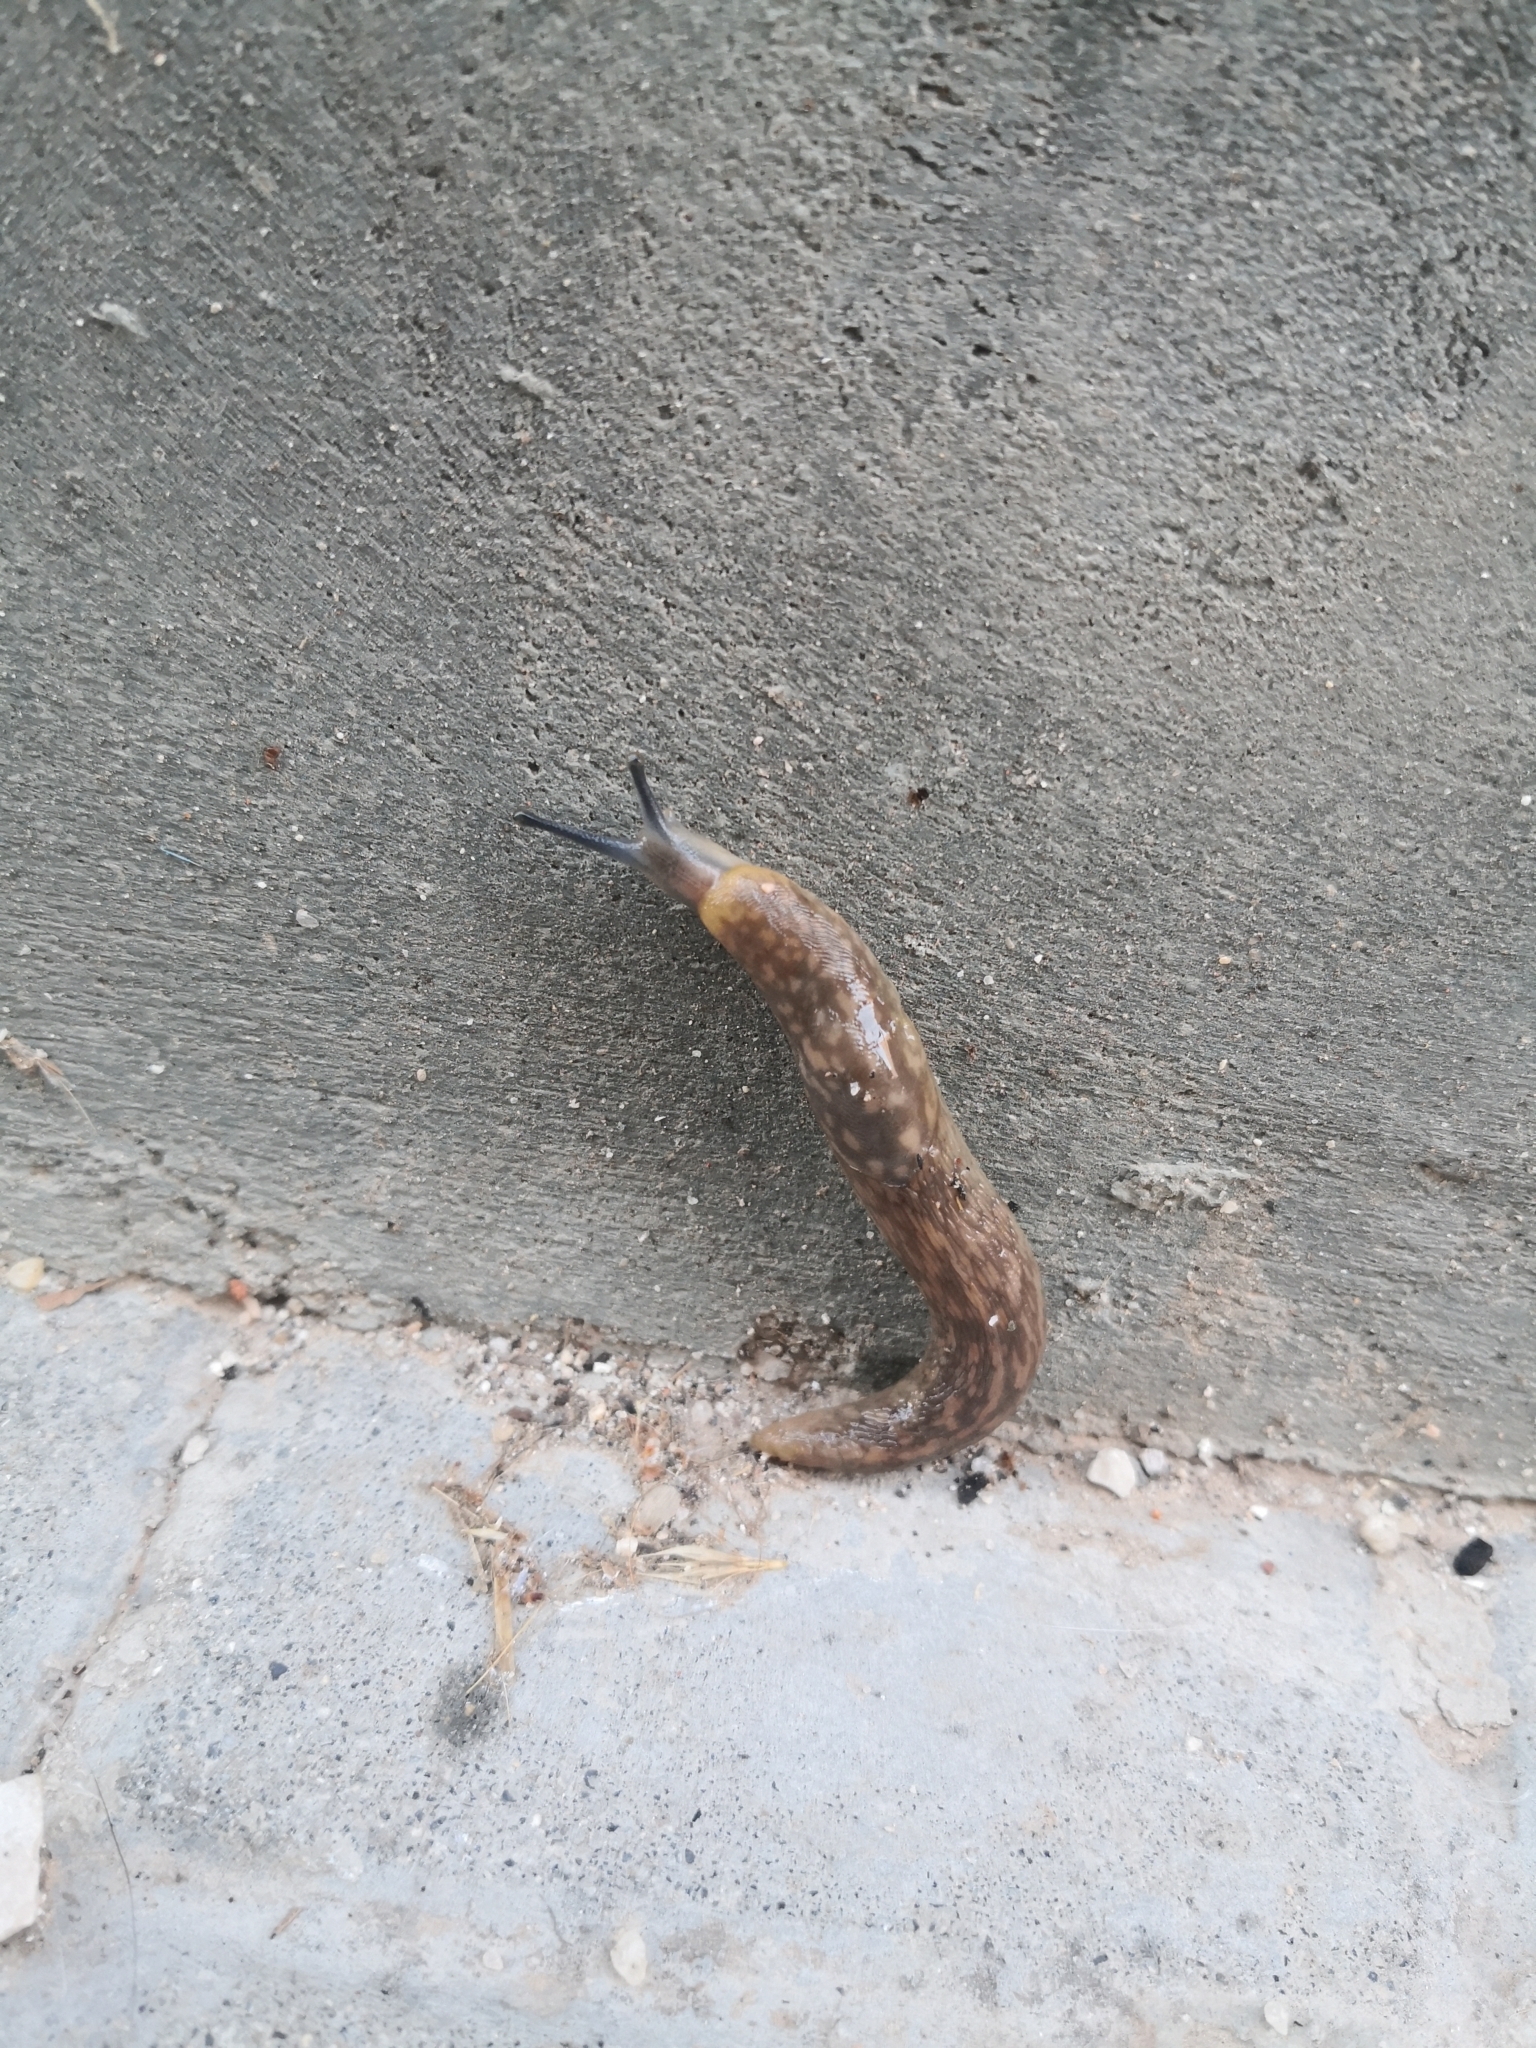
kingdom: Animalia
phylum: Mollusca
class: Gastropoda
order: Stylommatophora
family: Limacidae
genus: Limacus
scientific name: Limacus flavus
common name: Yellow gardenslug
